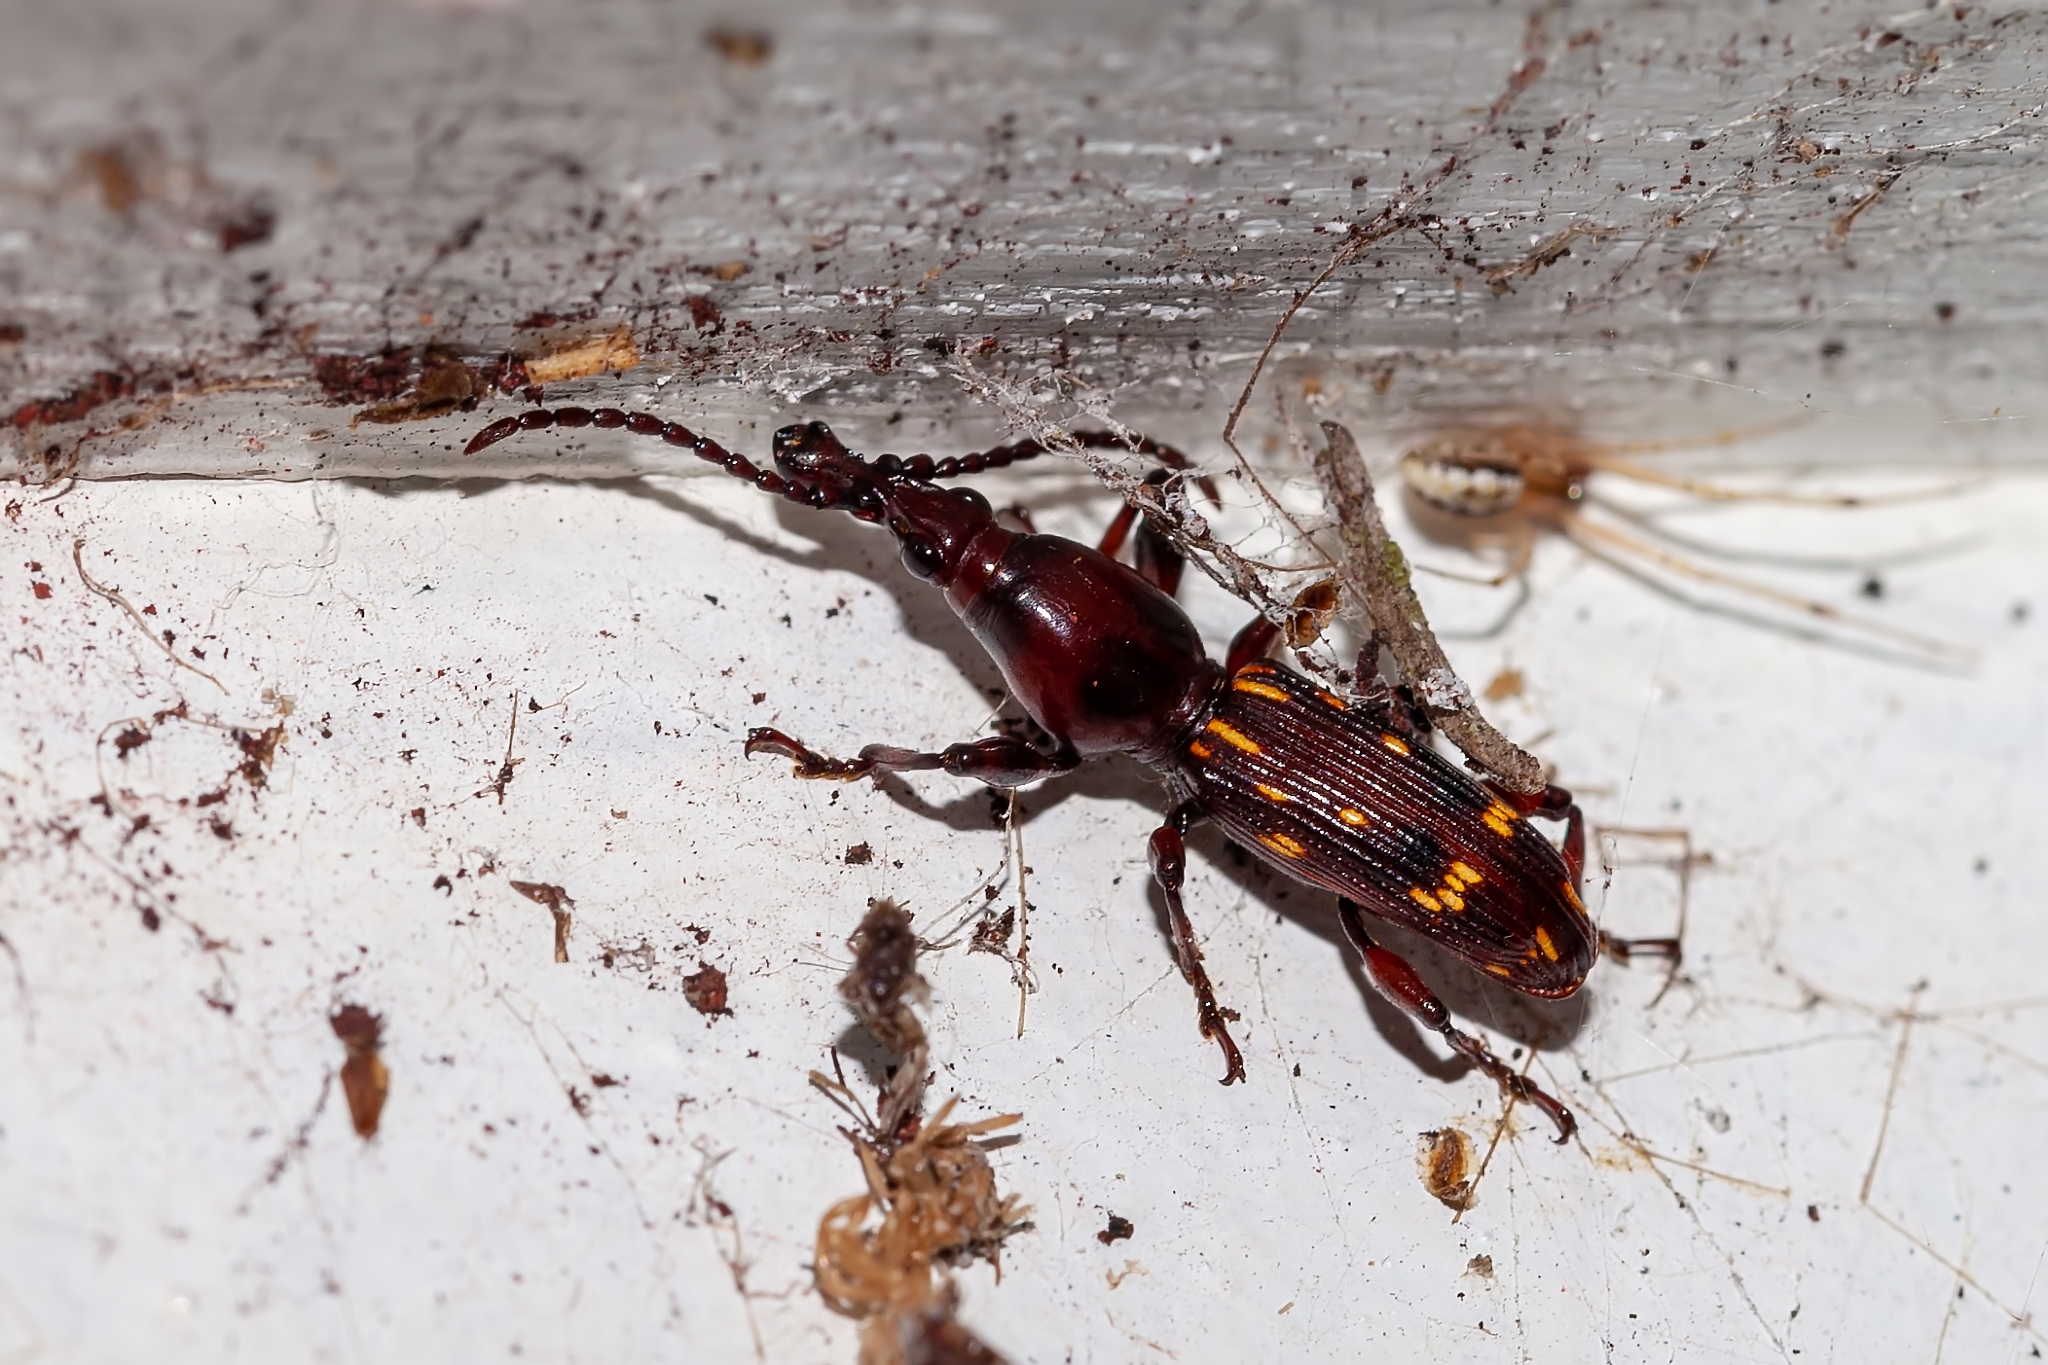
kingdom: Animalia
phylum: Arthropoda
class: Insecta
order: Coleoptera
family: Brentidae
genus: Arrenodes
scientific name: Arrenodes minutus
